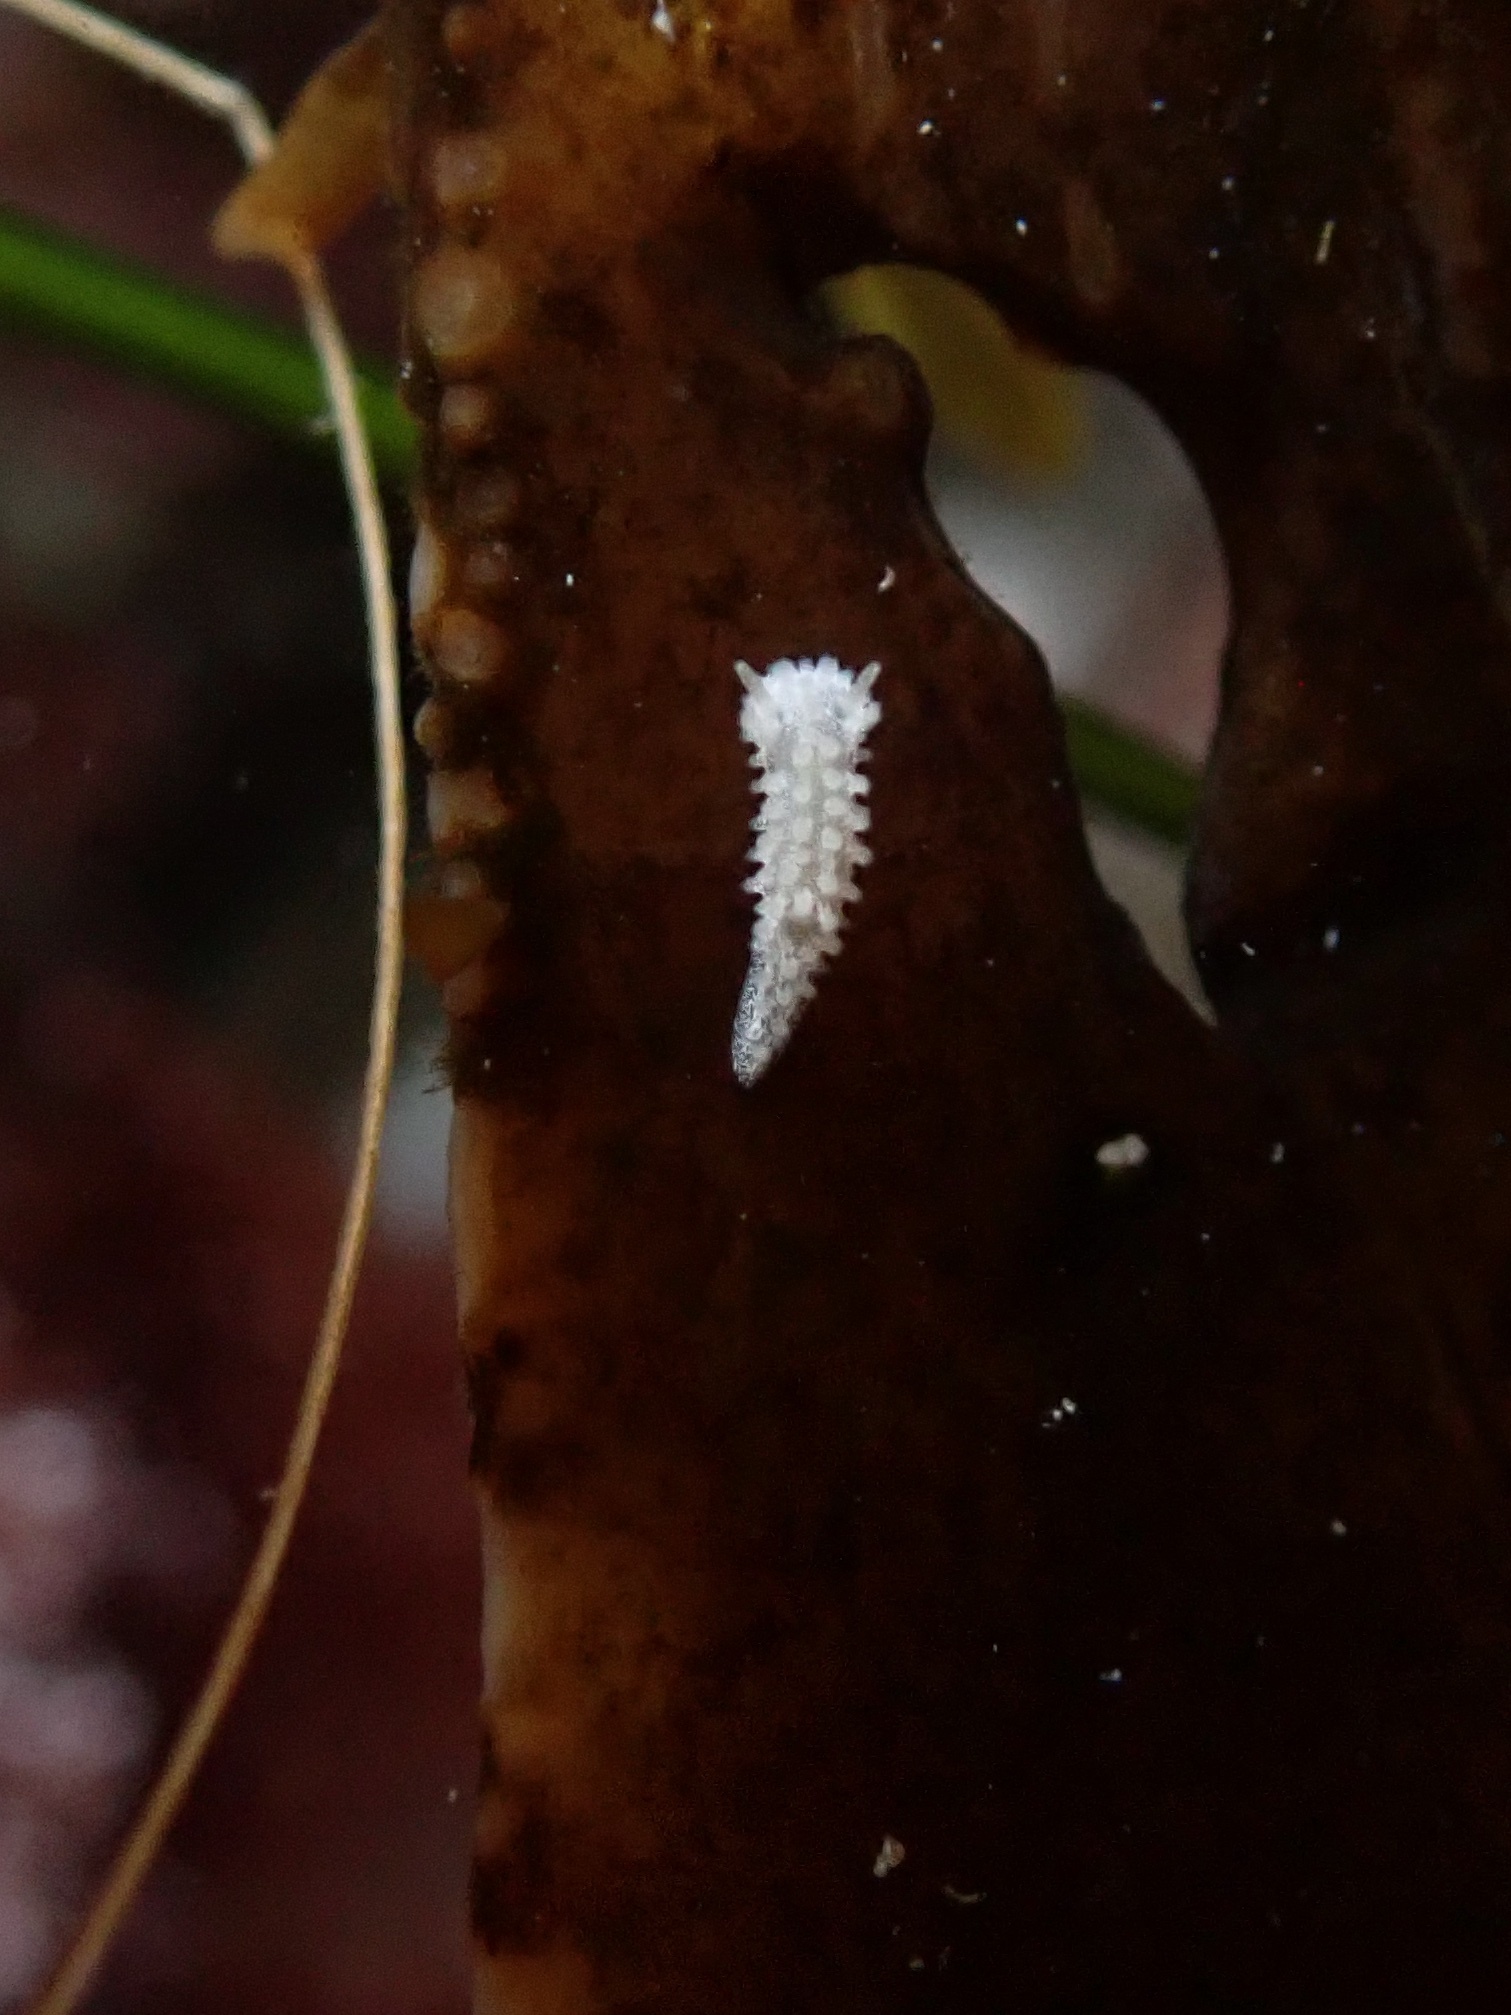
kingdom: Animalia
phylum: Mollusca
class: Gastropoda
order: Nudibranchia
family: Aegiridae
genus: Aegires
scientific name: Aegires albopunctatus
